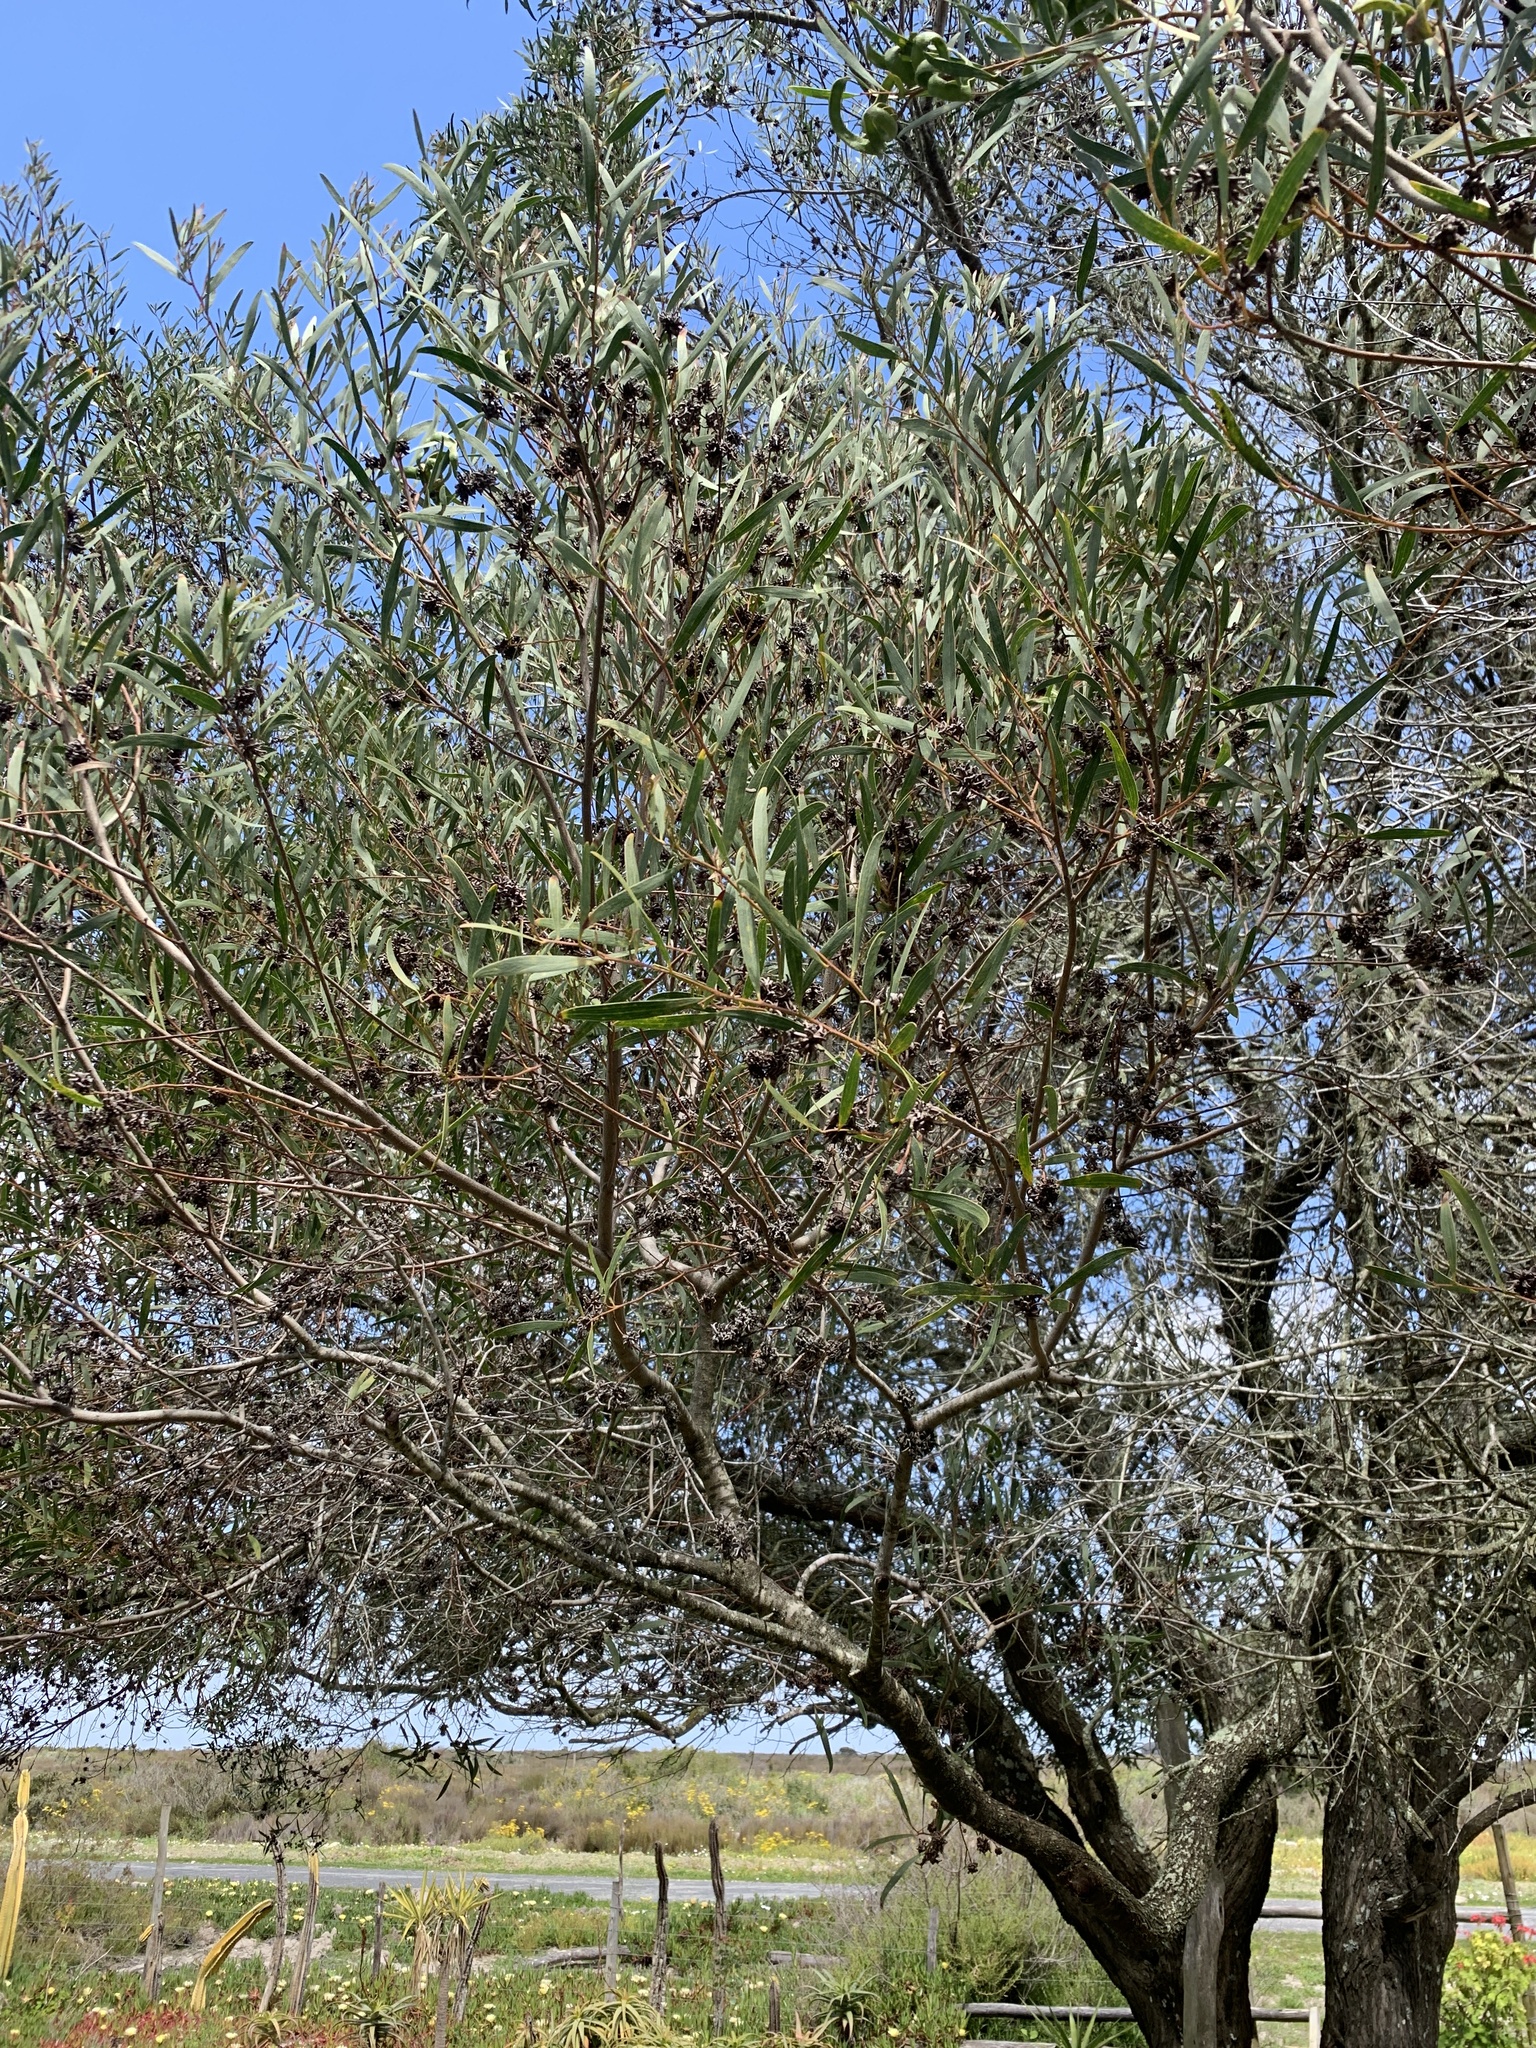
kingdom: Animalia
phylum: Arthropoda
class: Insecta
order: Diptera
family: Cecidomyiidae
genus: Dasineura
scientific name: Dasineura dielsi
